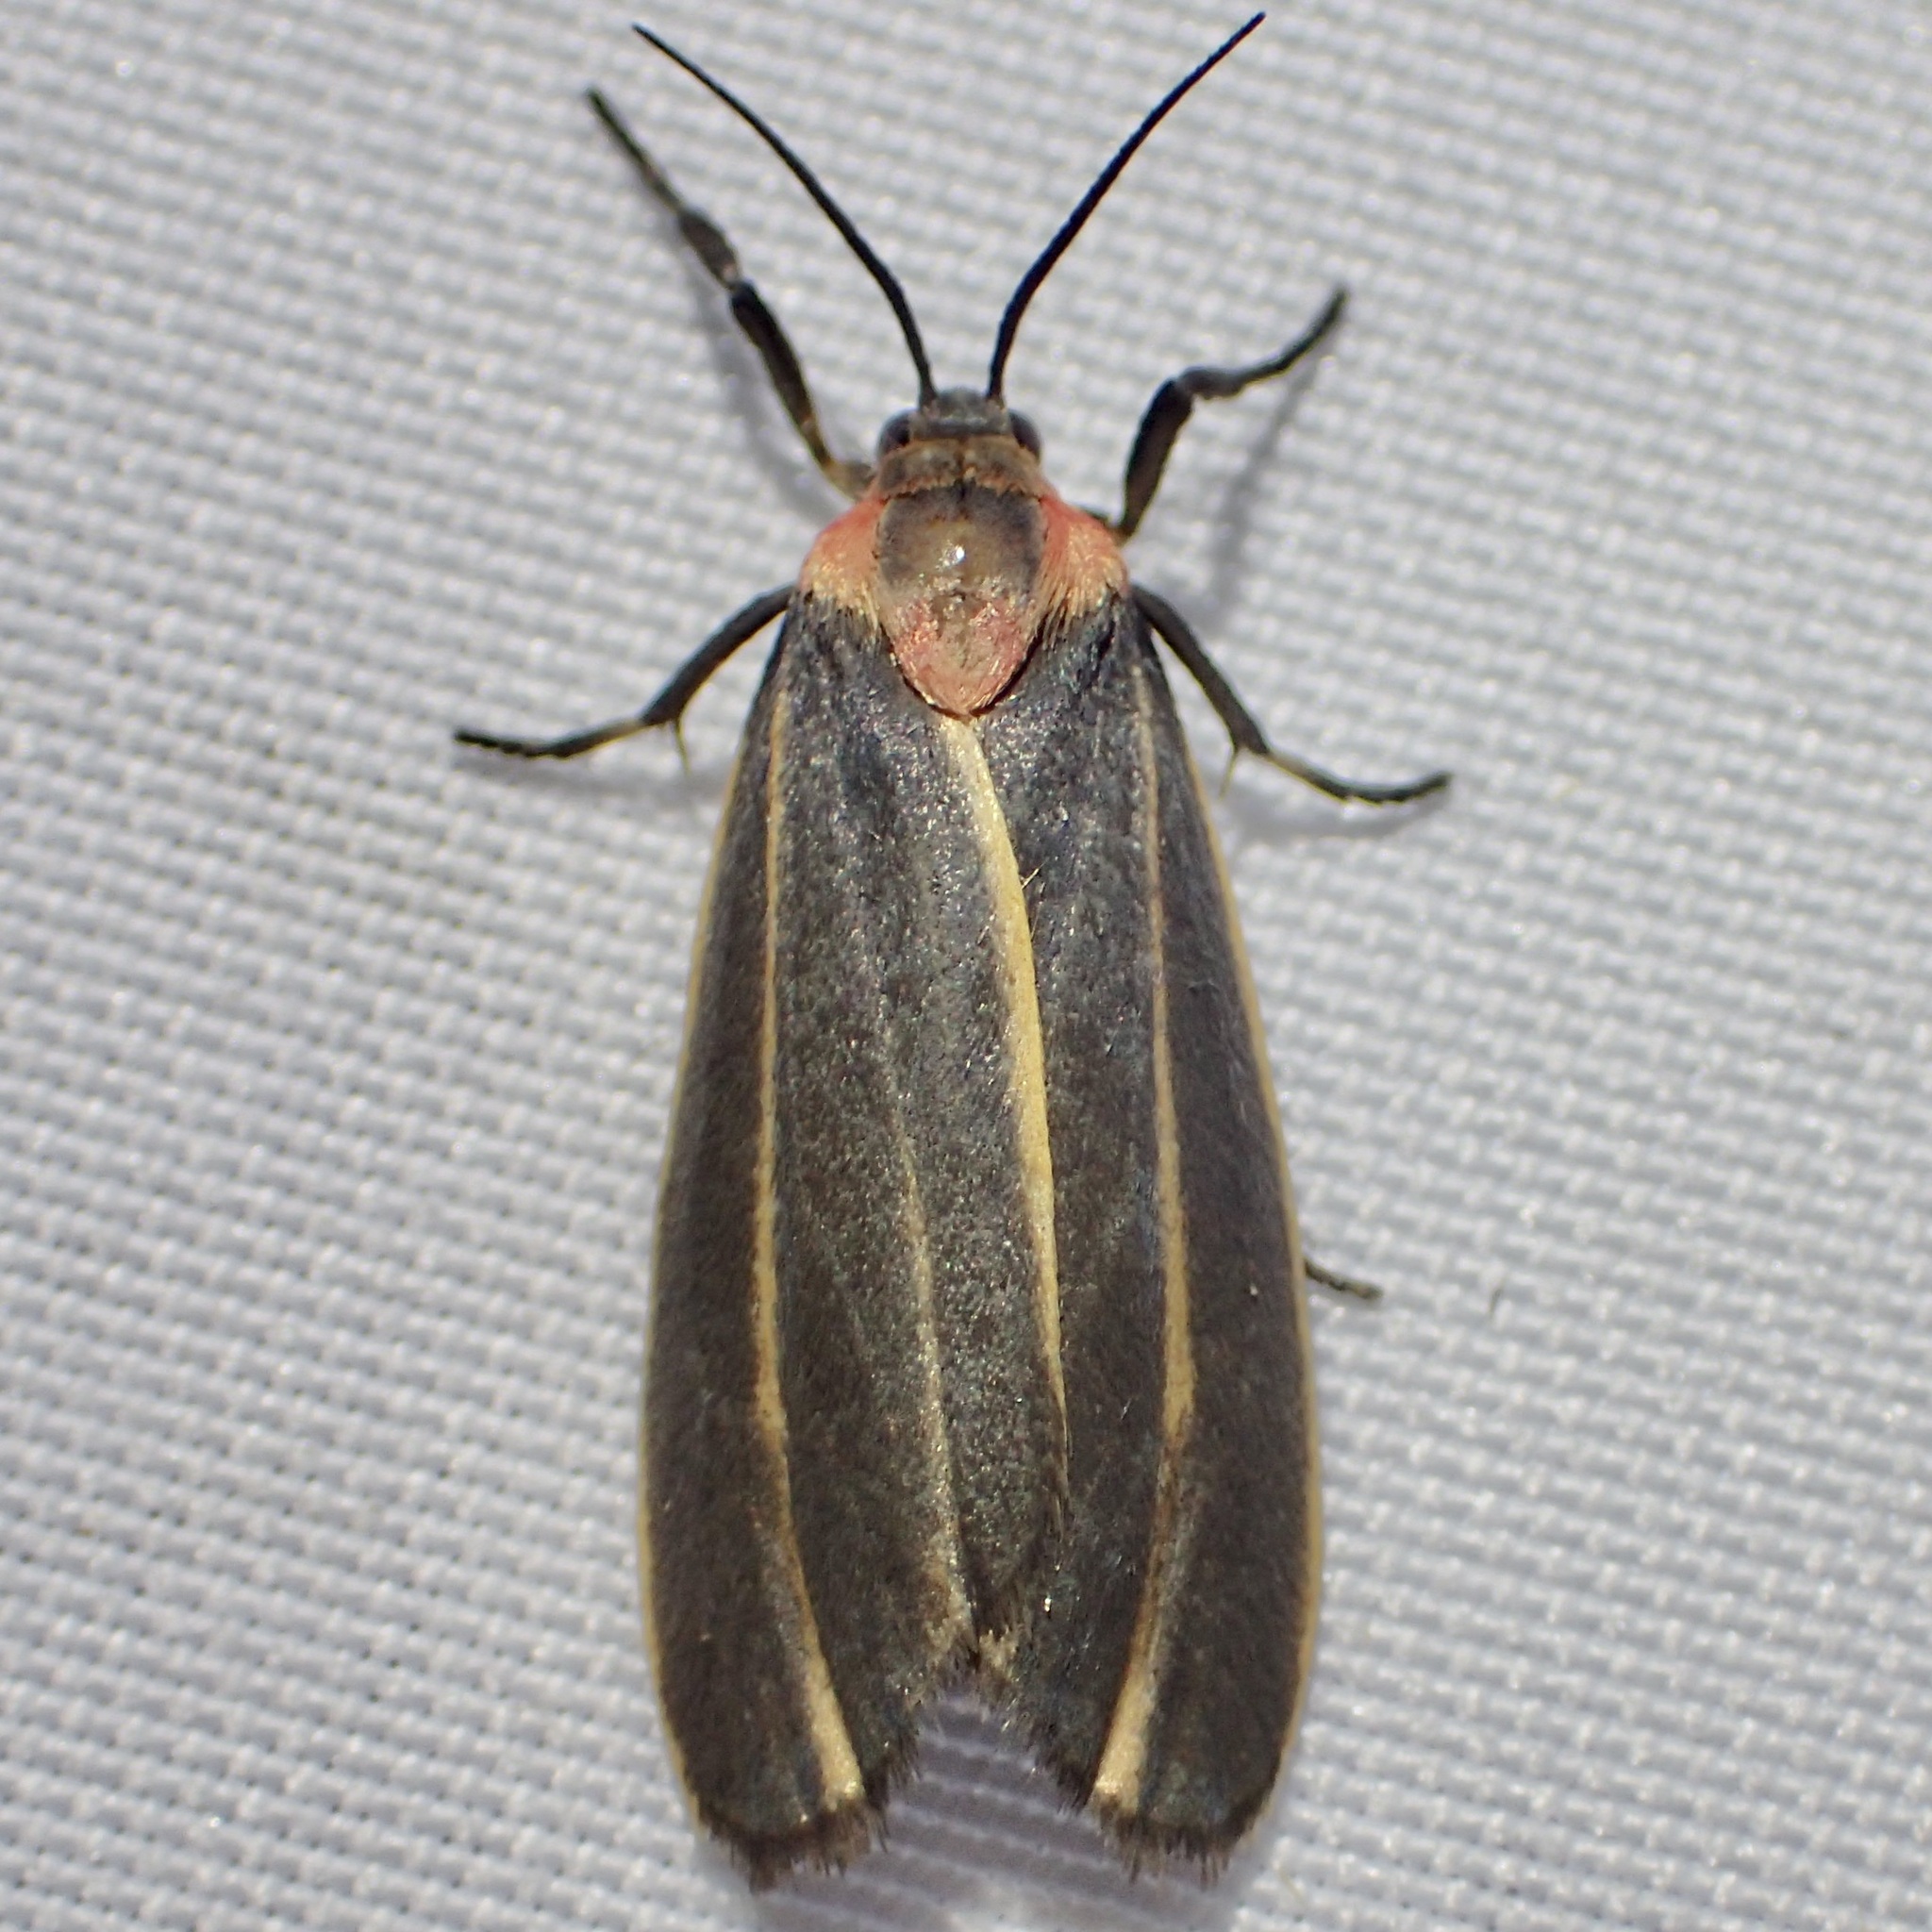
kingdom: Animalia
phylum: Arthropoda
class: Insecta
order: Lepidoptera
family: Erebidae
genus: Haematomis
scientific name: Haematomis uniformis
